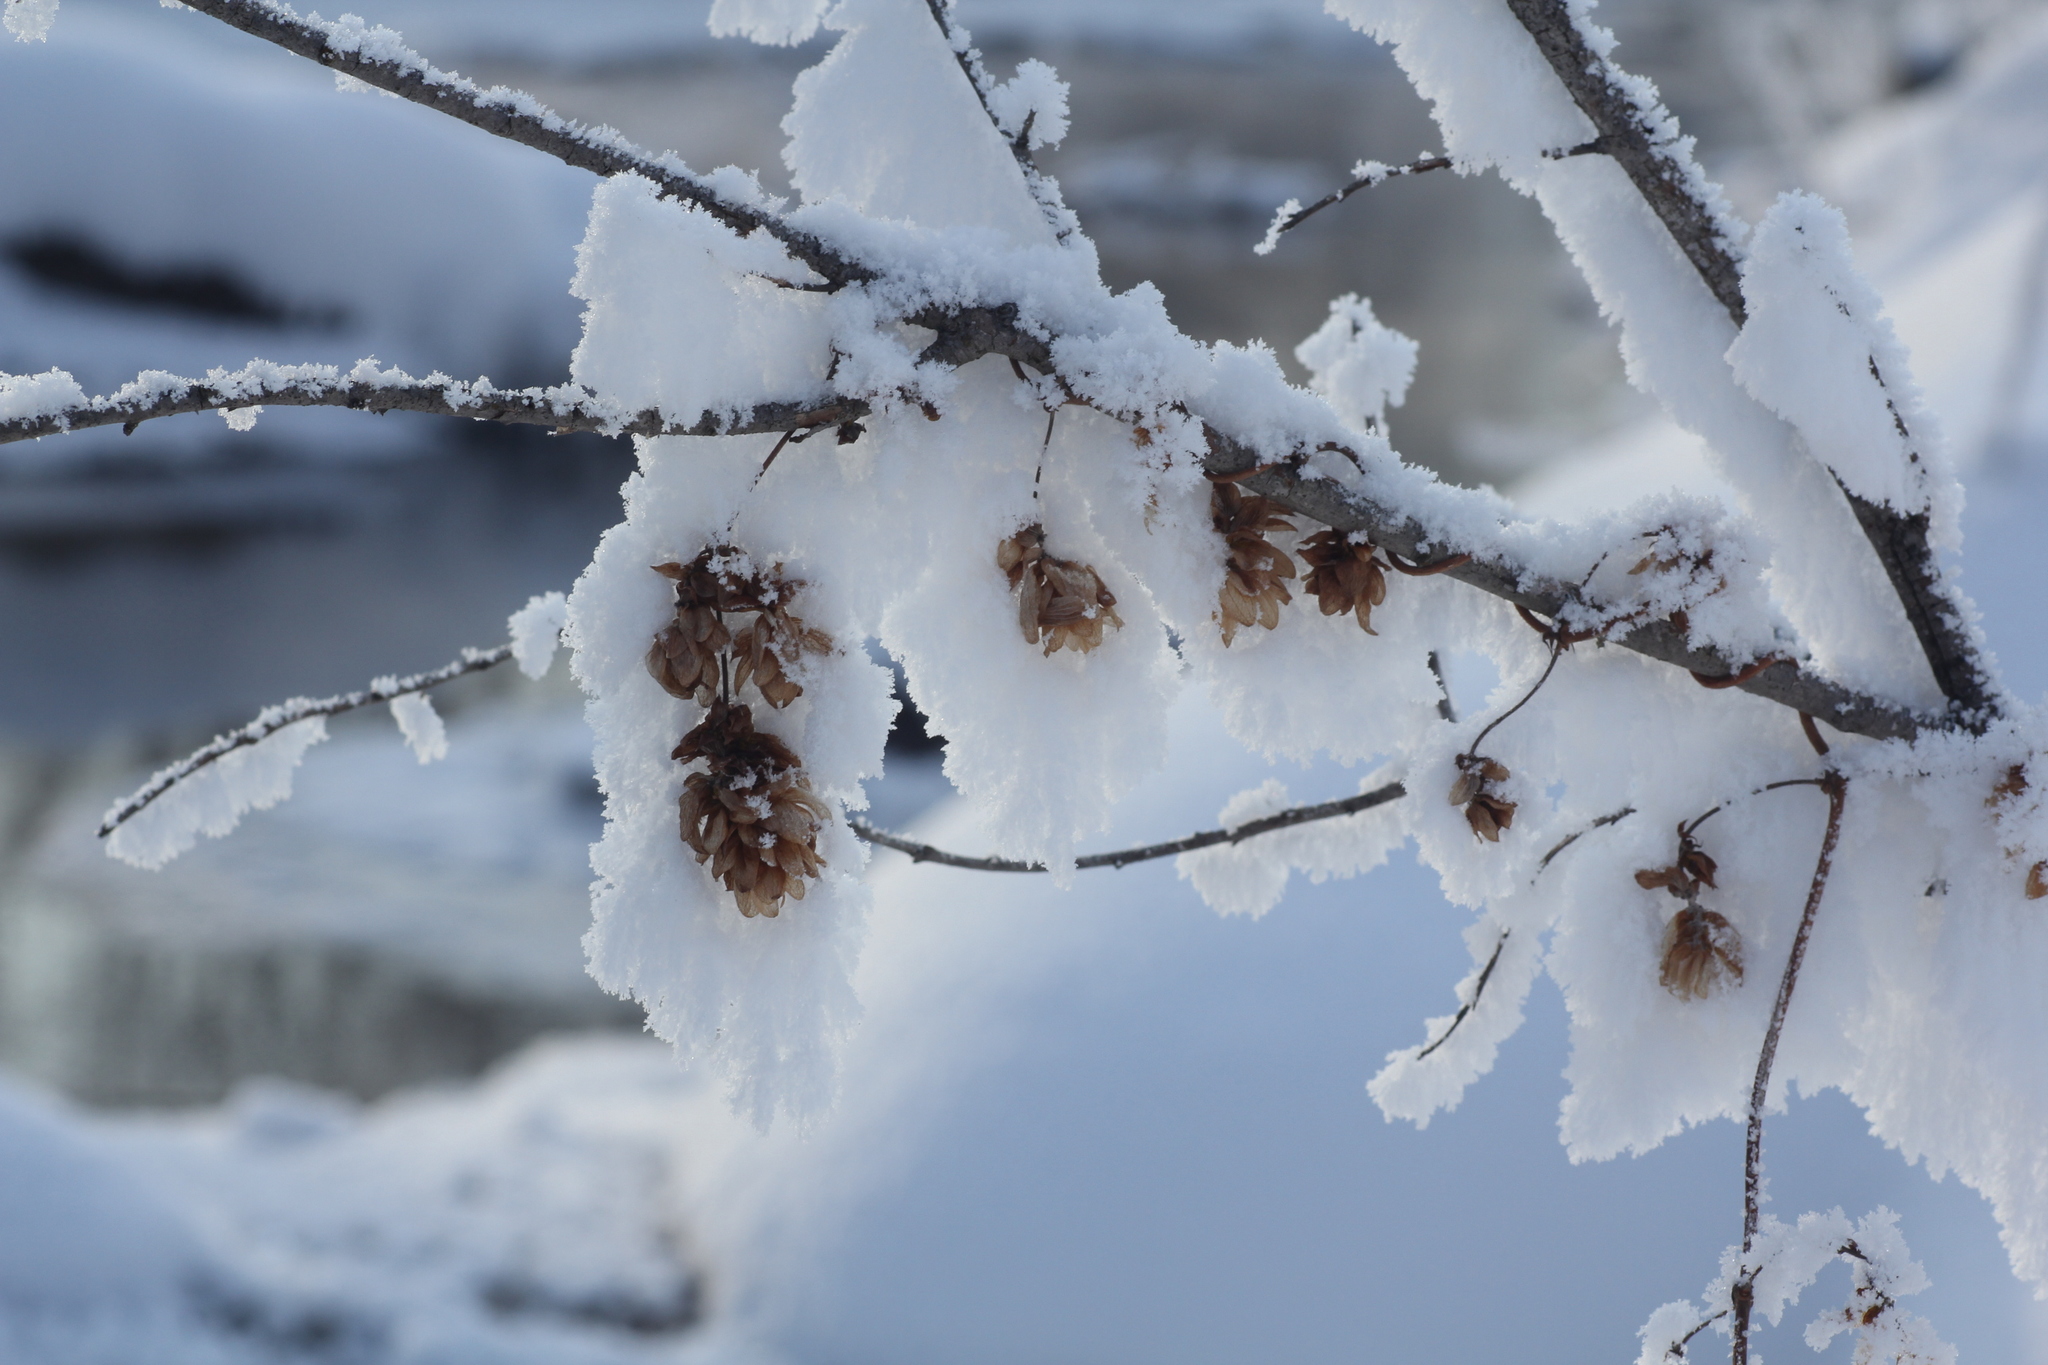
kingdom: Plantae
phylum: Tracheophyta
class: Magnoliopsida
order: Rosales
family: Cannabaceae
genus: Humulus
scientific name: Humulus lupulus
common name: Hop
